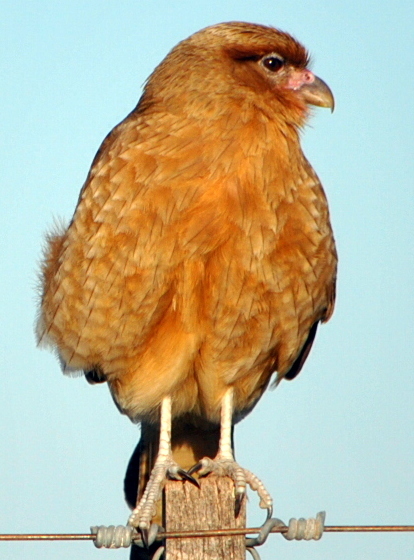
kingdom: Animalia
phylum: Chordata
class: Aves
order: Falconiformes
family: Falconidae
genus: Daptrius
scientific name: Daptrius
